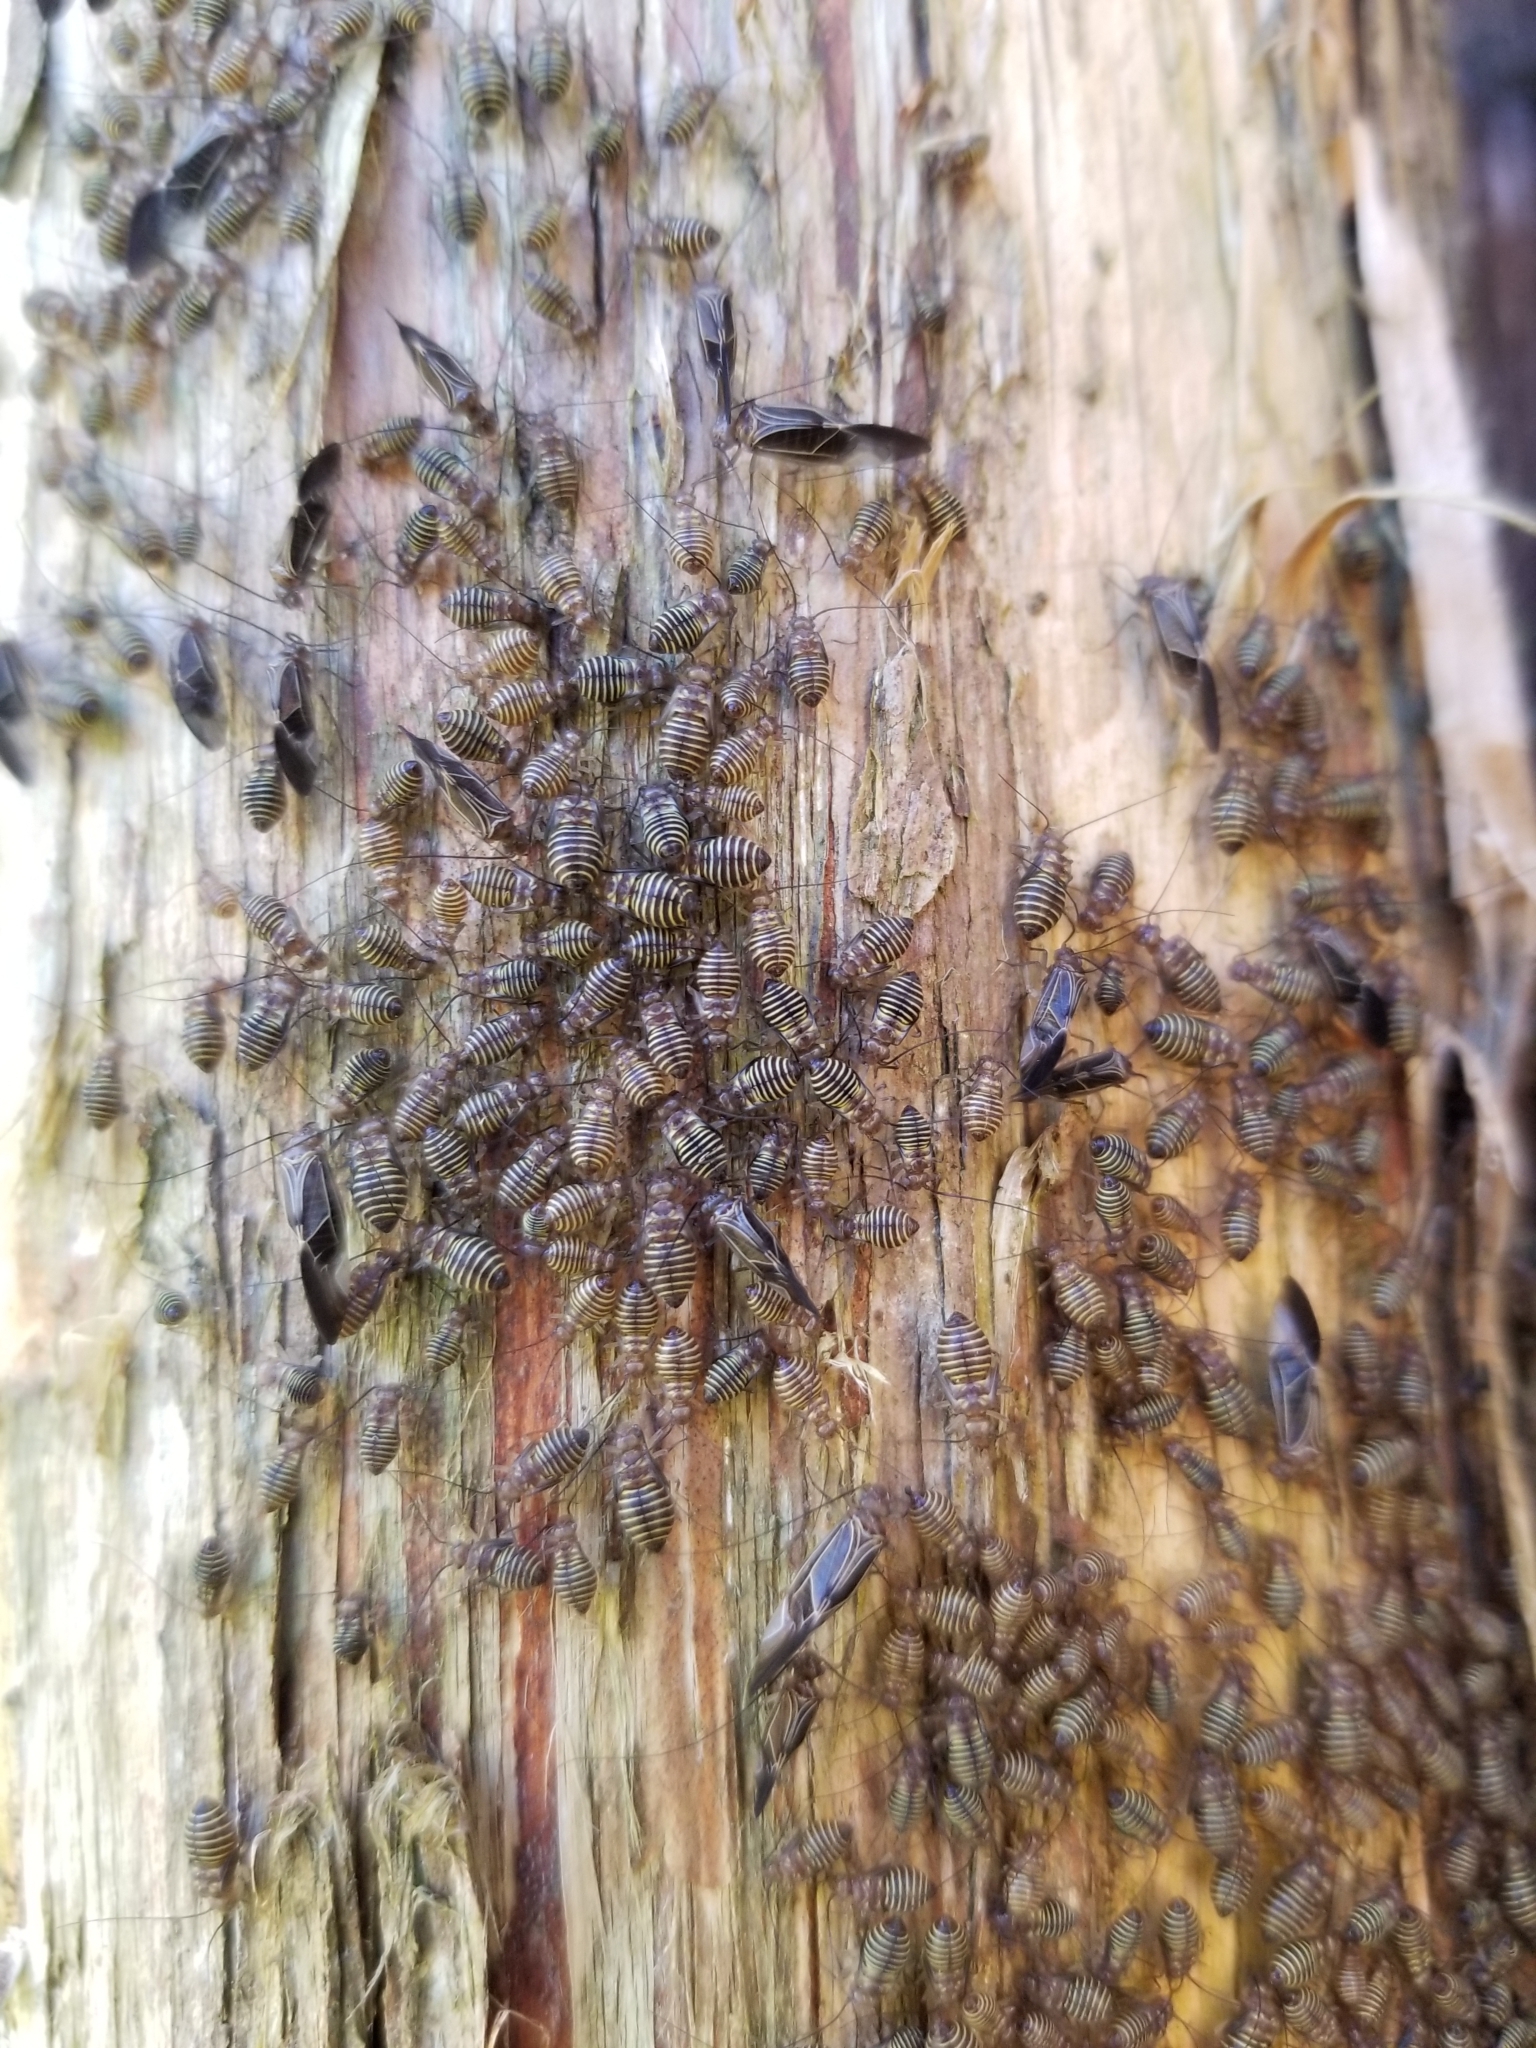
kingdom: Animalia
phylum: Arthropoda
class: Insecta
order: Psocodea
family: Psocidae
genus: Cerastipsocus
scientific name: Cerastipsocus venosus
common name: Tree cattle
